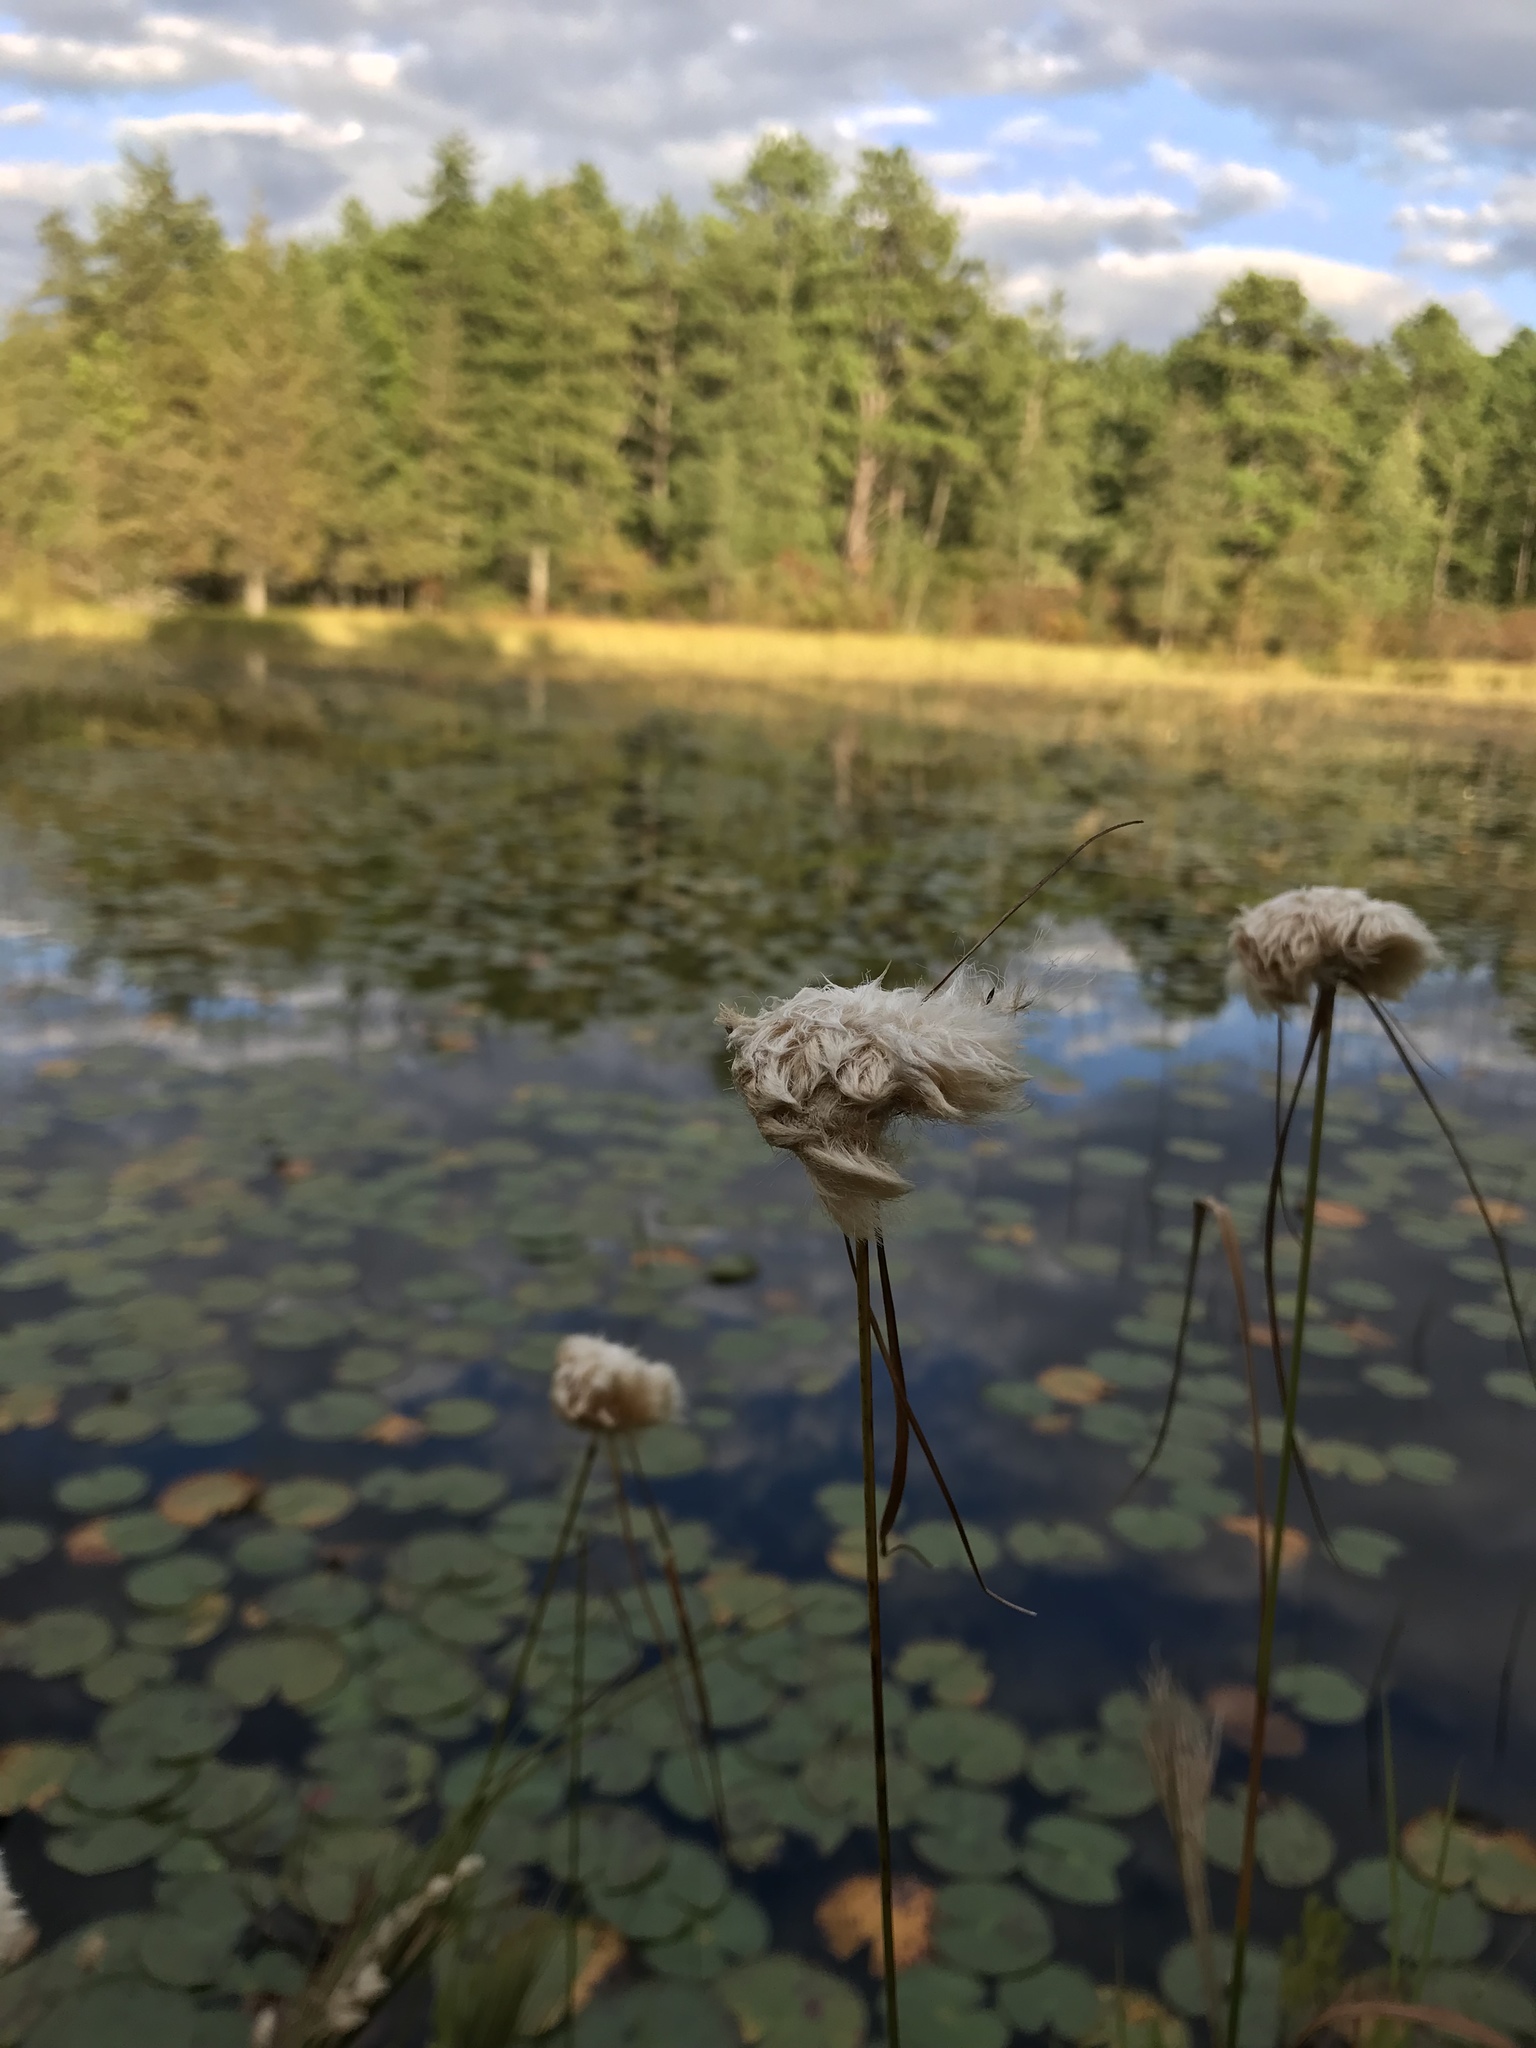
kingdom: Plantae
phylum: Tracheophyta
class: Liliopsida
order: Poales
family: Cyperaceae
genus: Eriophorum
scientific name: Eriophorum virginicum
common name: Tawny cottongrass
